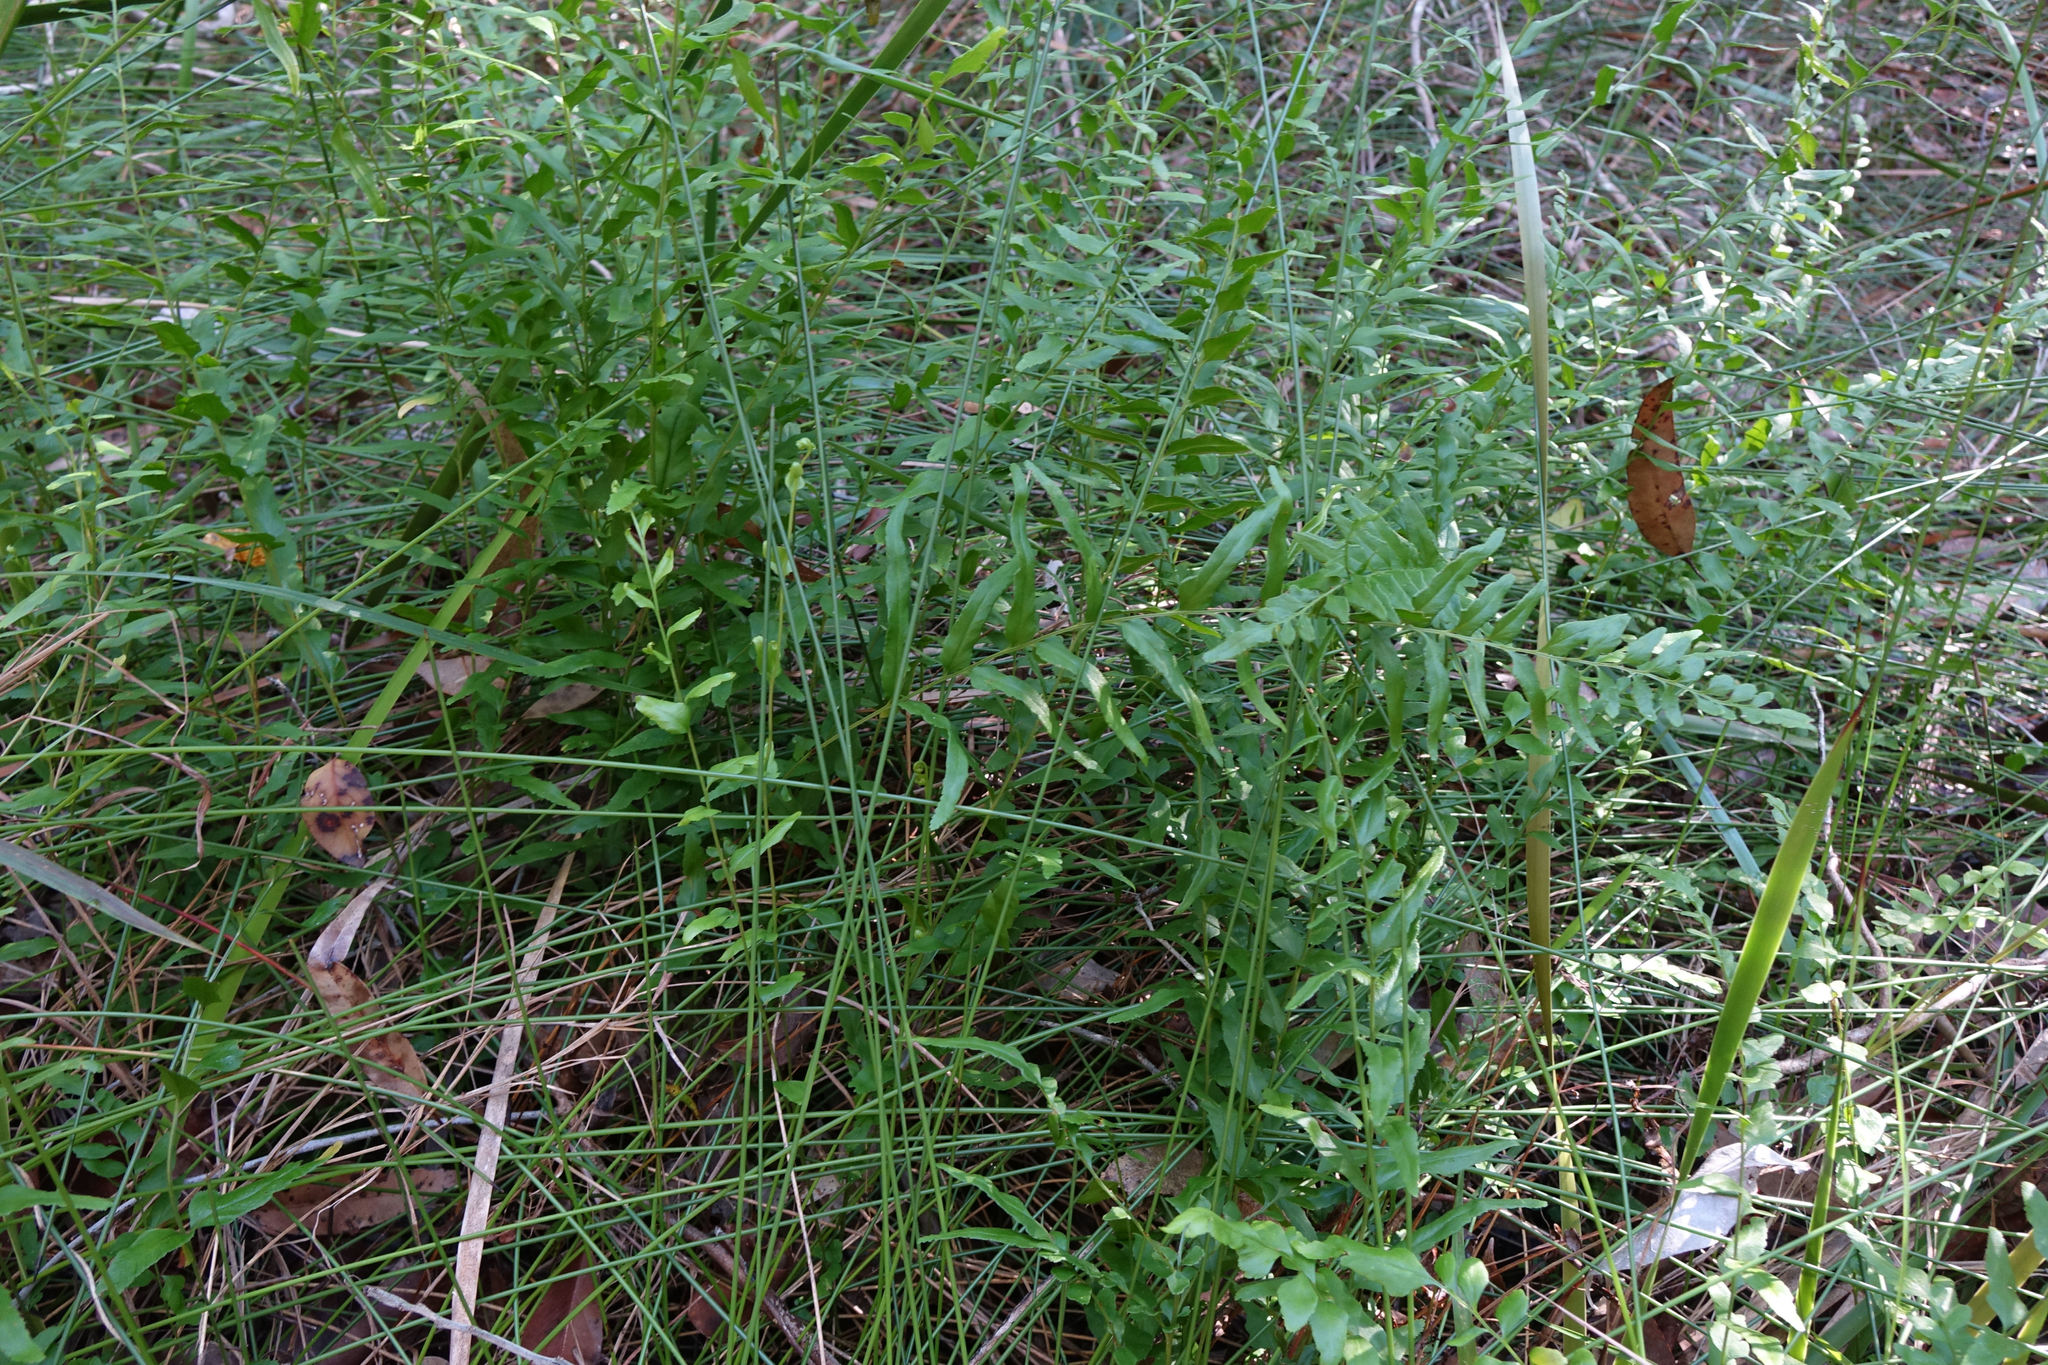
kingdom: Plantae
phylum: Tracheophyta
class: Polypodiopsida
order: Polypodiales
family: Lindsaeaceae
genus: Lindsaea
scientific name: Lindsaea ensifolia
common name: Graceful necklace fern
